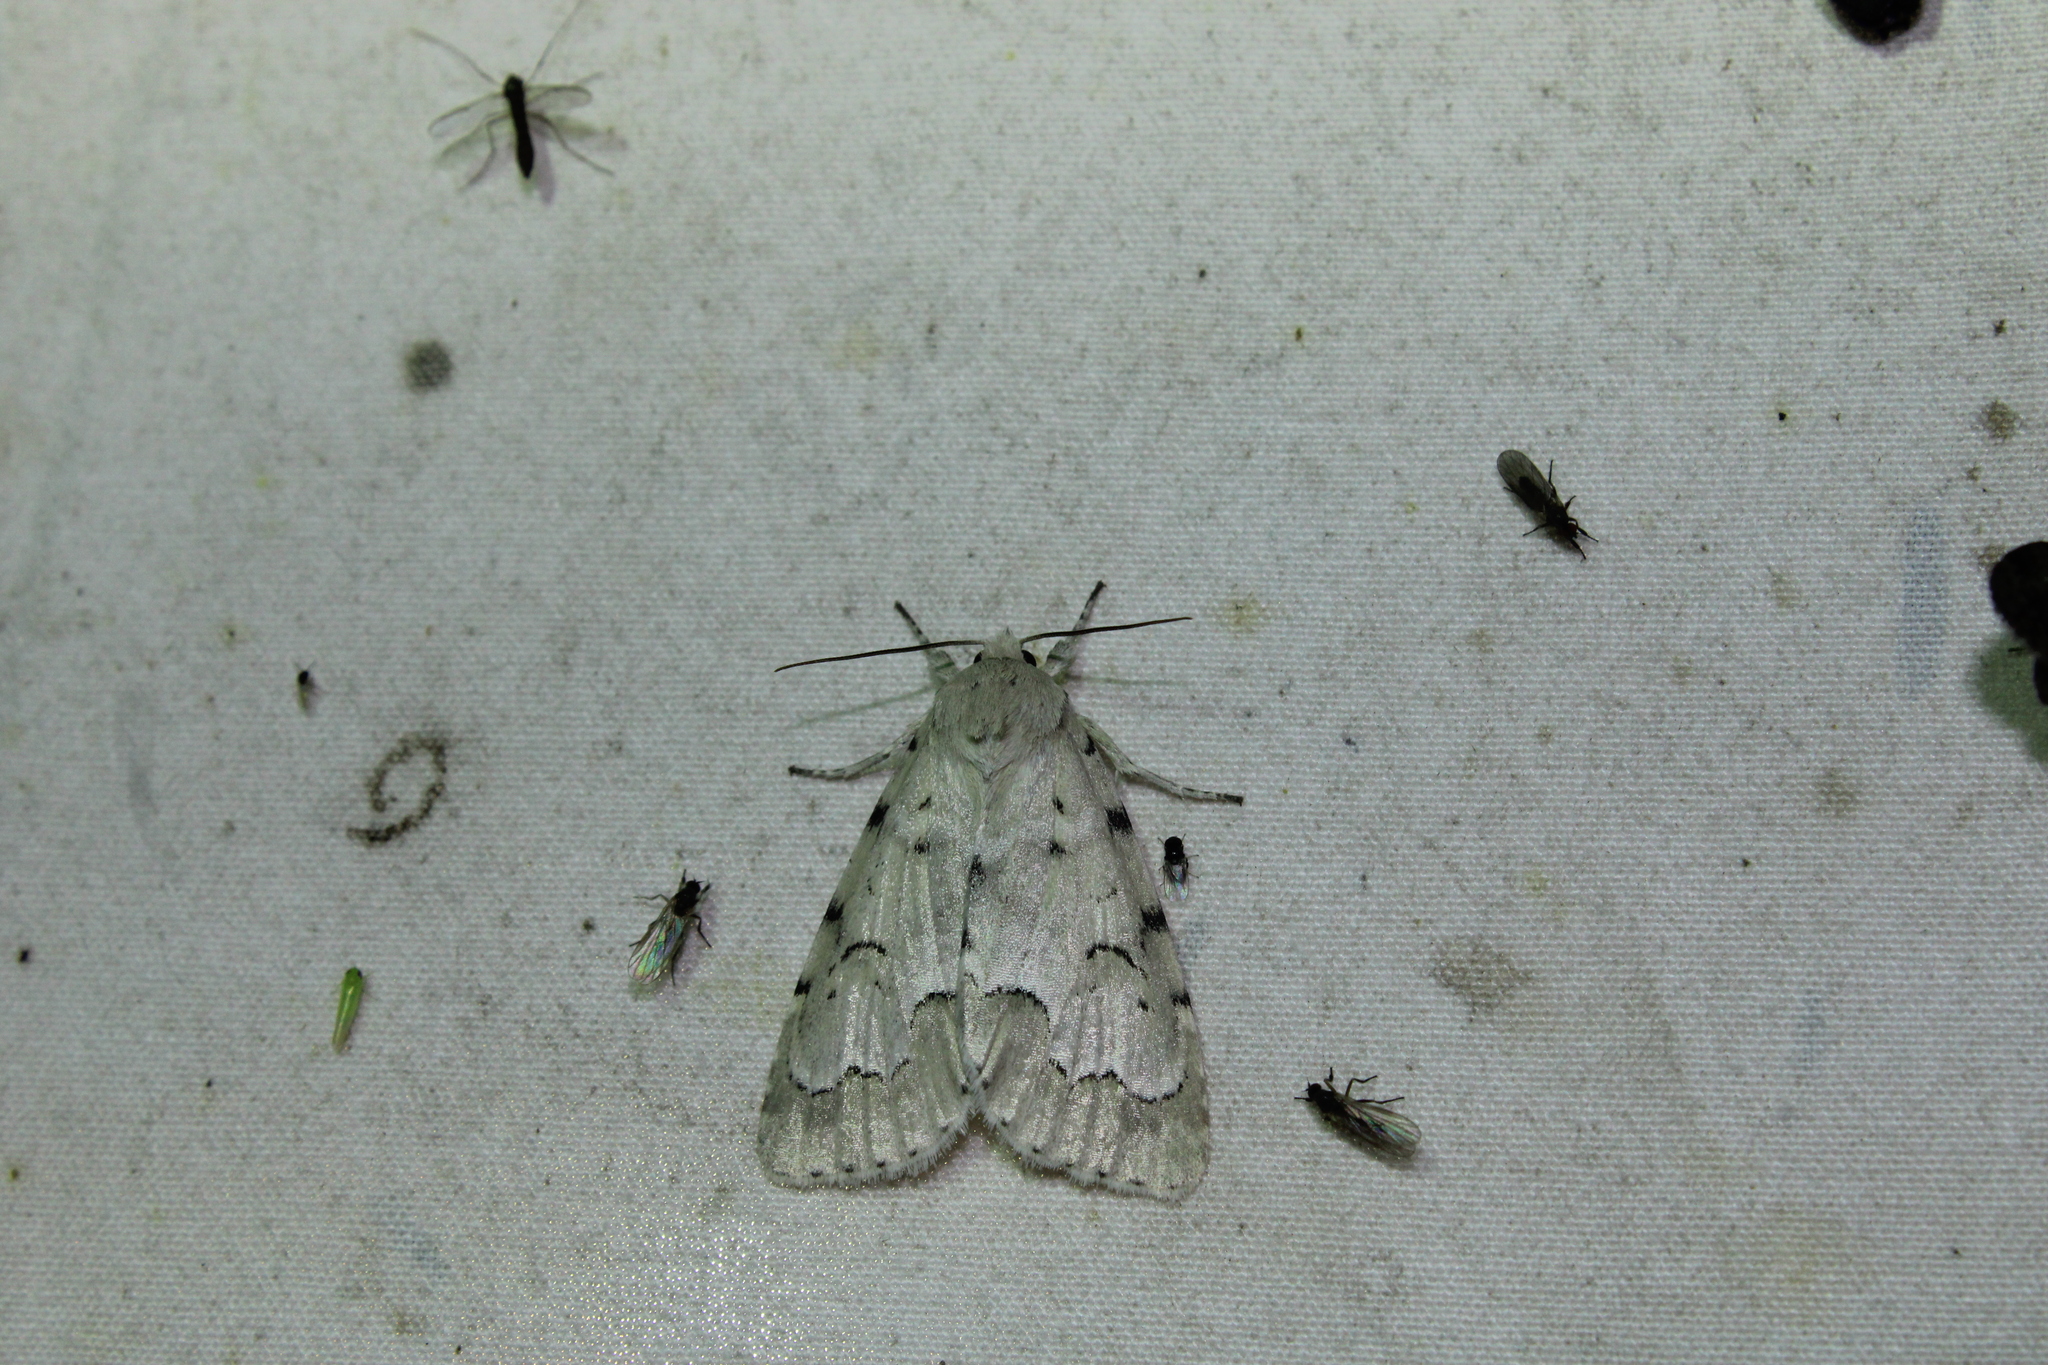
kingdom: Animalia
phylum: Arthropoda
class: Insecta
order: Lepidoptera
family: Noctuidae
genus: Acronicta
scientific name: Acronicta innotata
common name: Unmarked dagger
